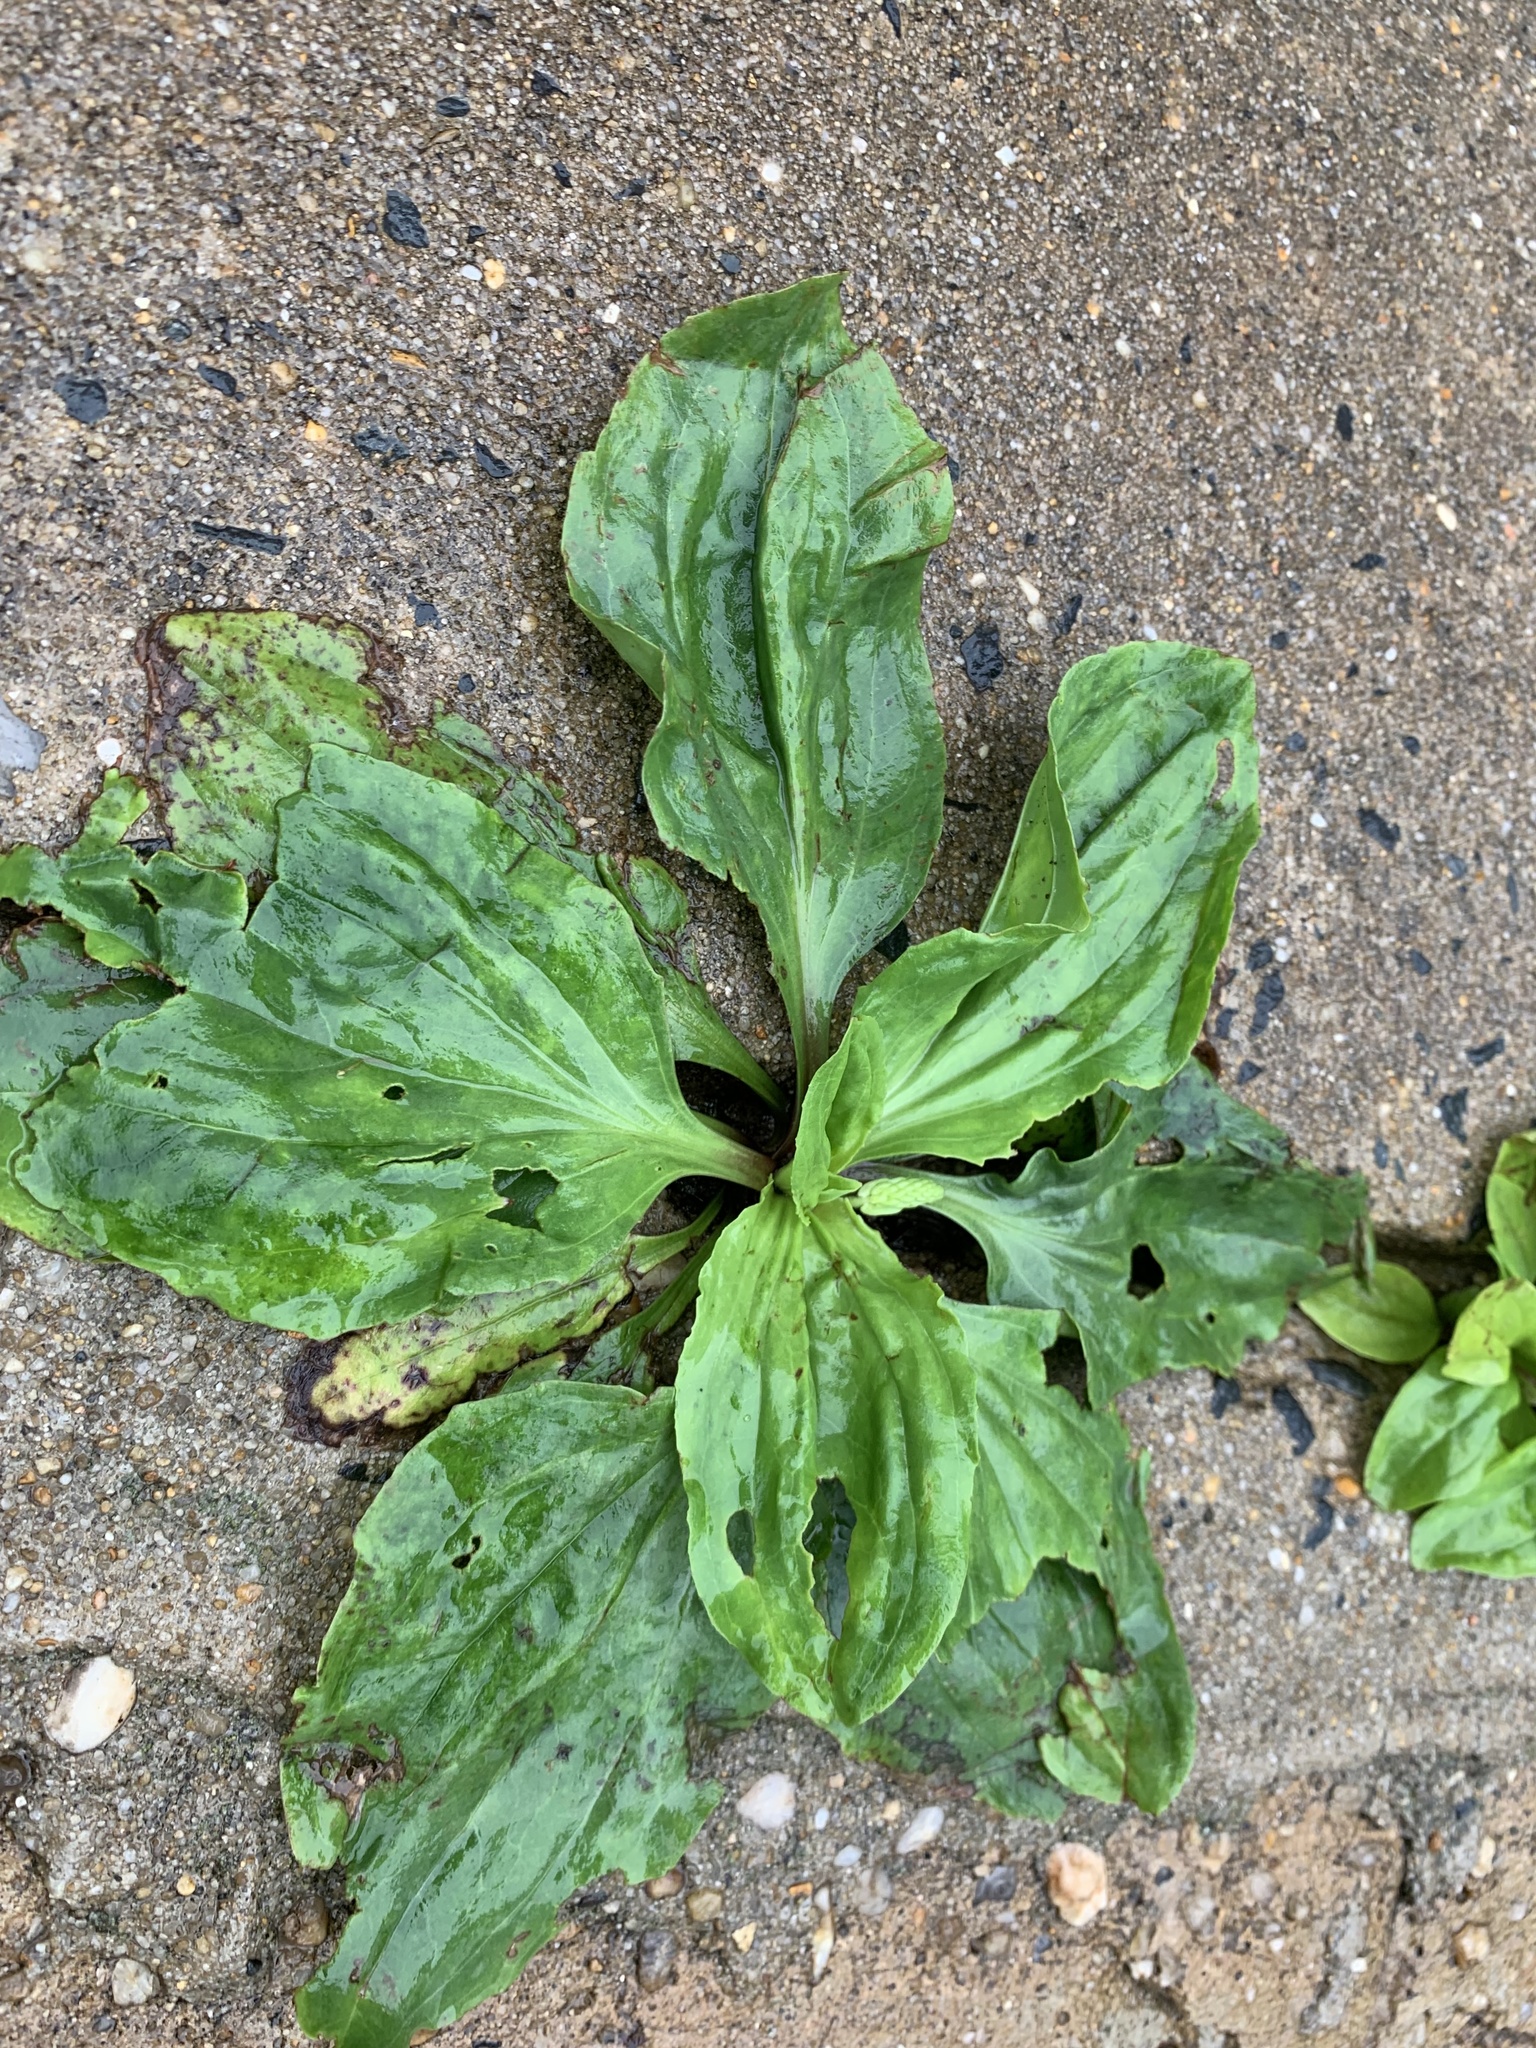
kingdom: Plantae
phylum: Tracheophyta
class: Magnoliopsida
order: Lamiales
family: Plantaginaceae
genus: Plantago
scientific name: Plantago rugelii
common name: American plantain
